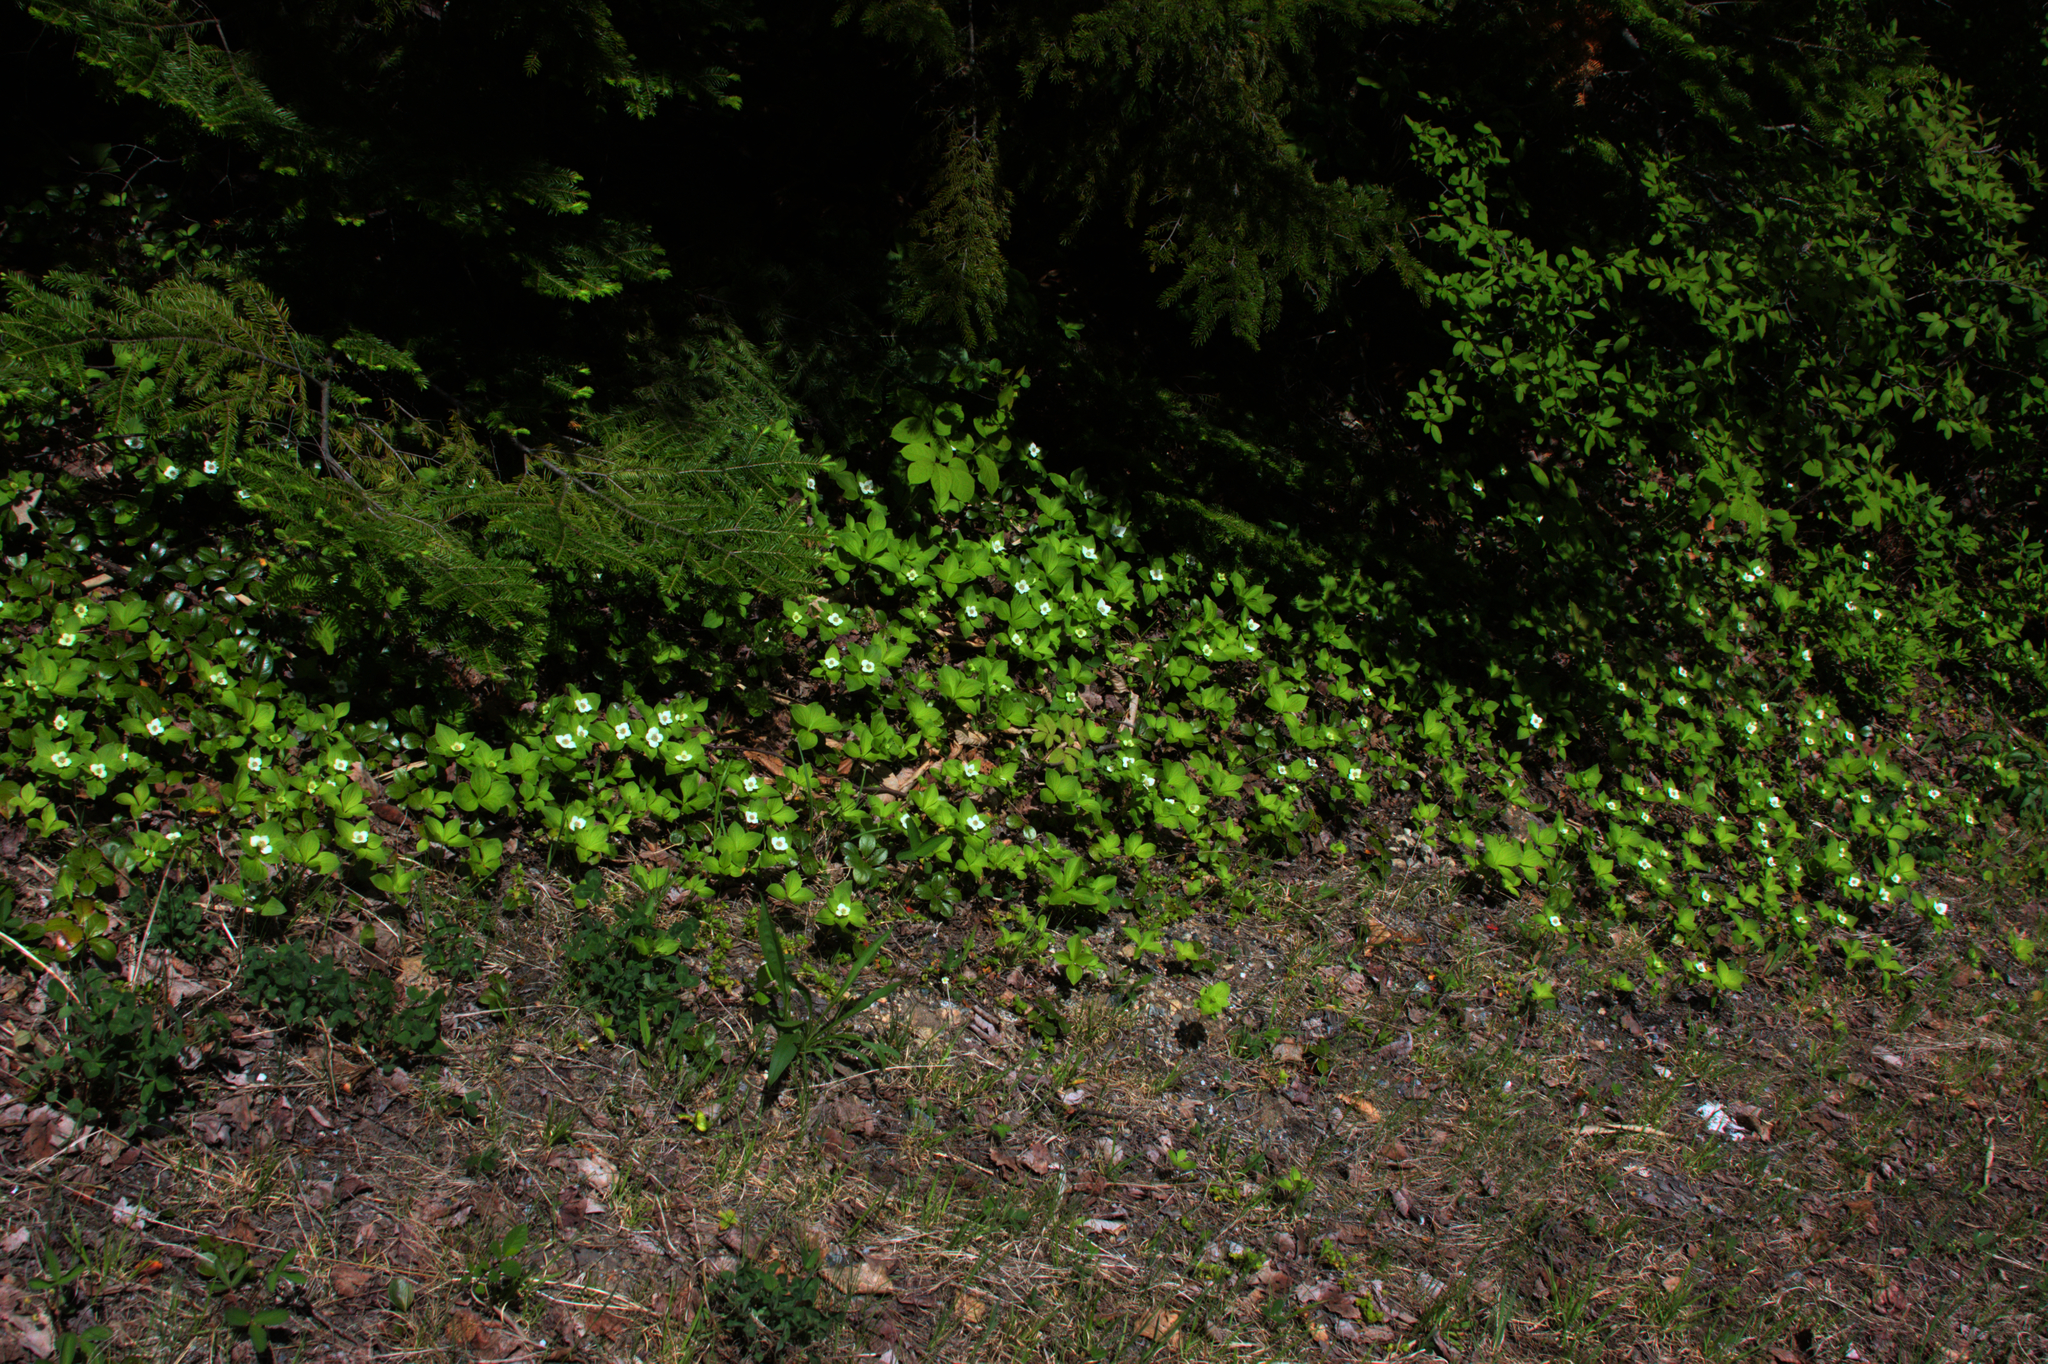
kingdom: Plantae
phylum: Tracheophyta
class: Magnoliopsida
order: Cornales
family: Cornaceae
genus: Cornus
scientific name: Cornus canadensis
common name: Creeping dogwood
